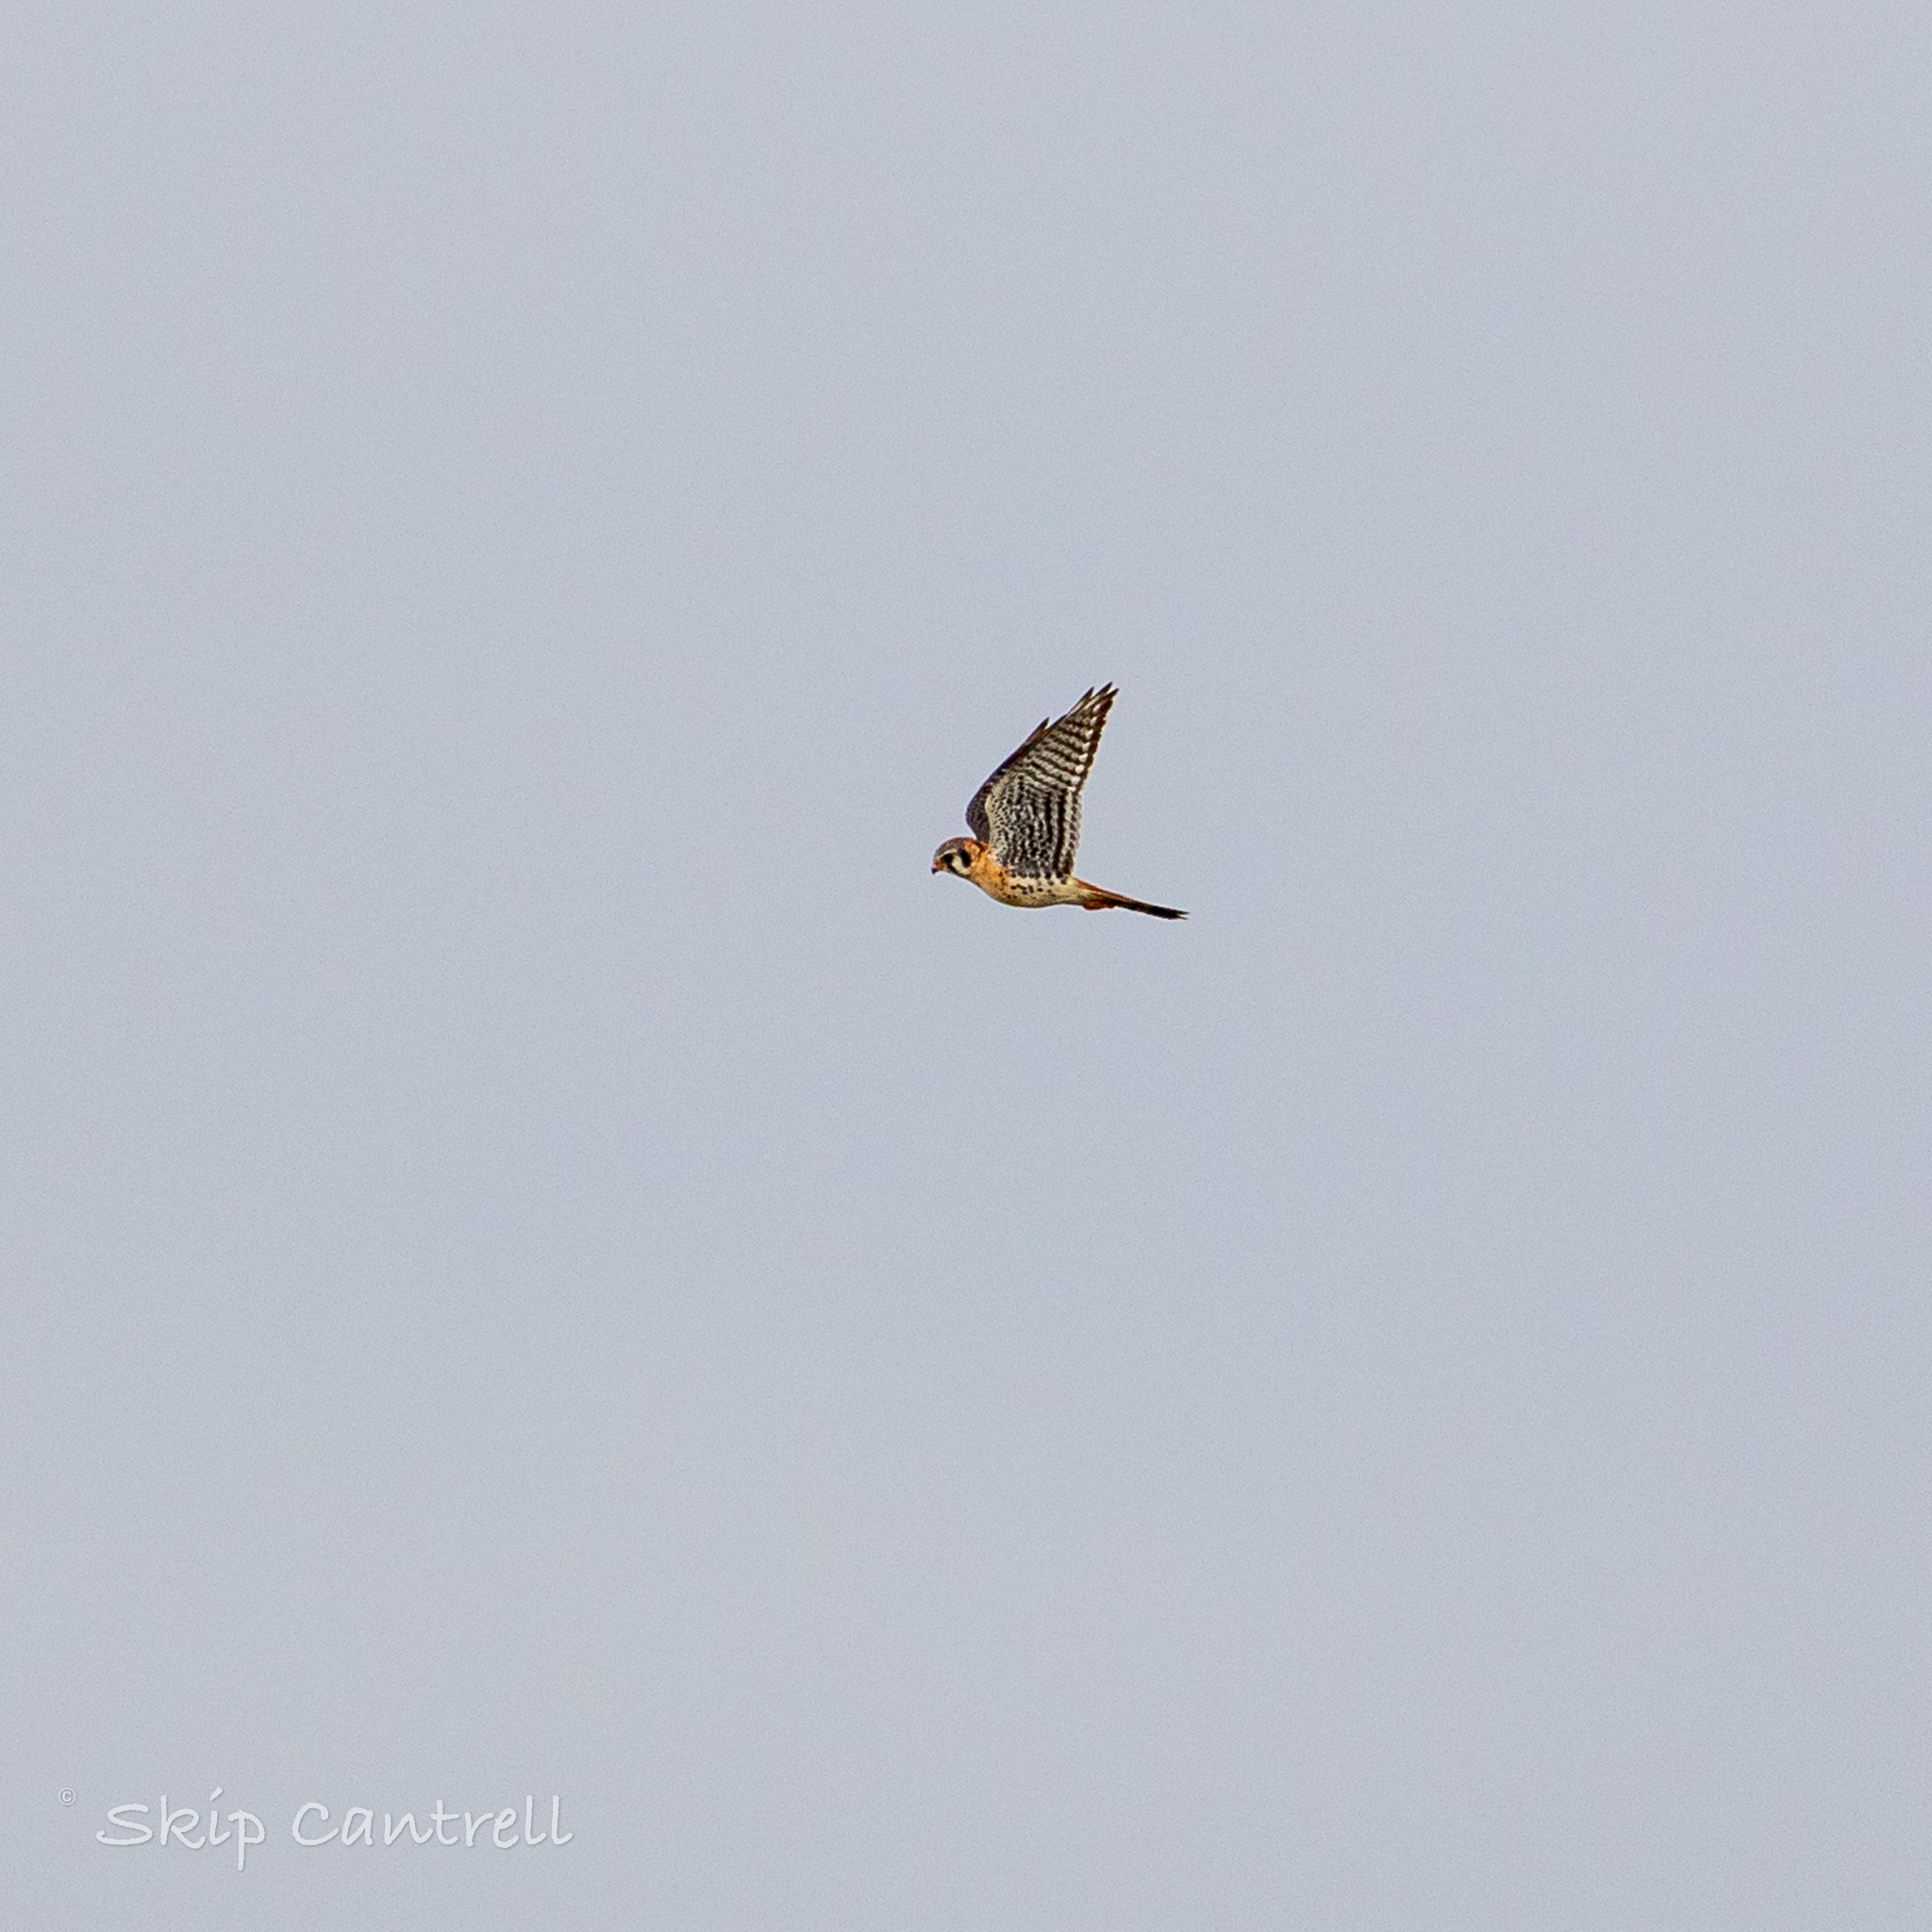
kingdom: Animalia
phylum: Chordata
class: Aves
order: Falconiformes
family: Falconidae
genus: Falco
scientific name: Falco sparverius
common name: American kestrel
